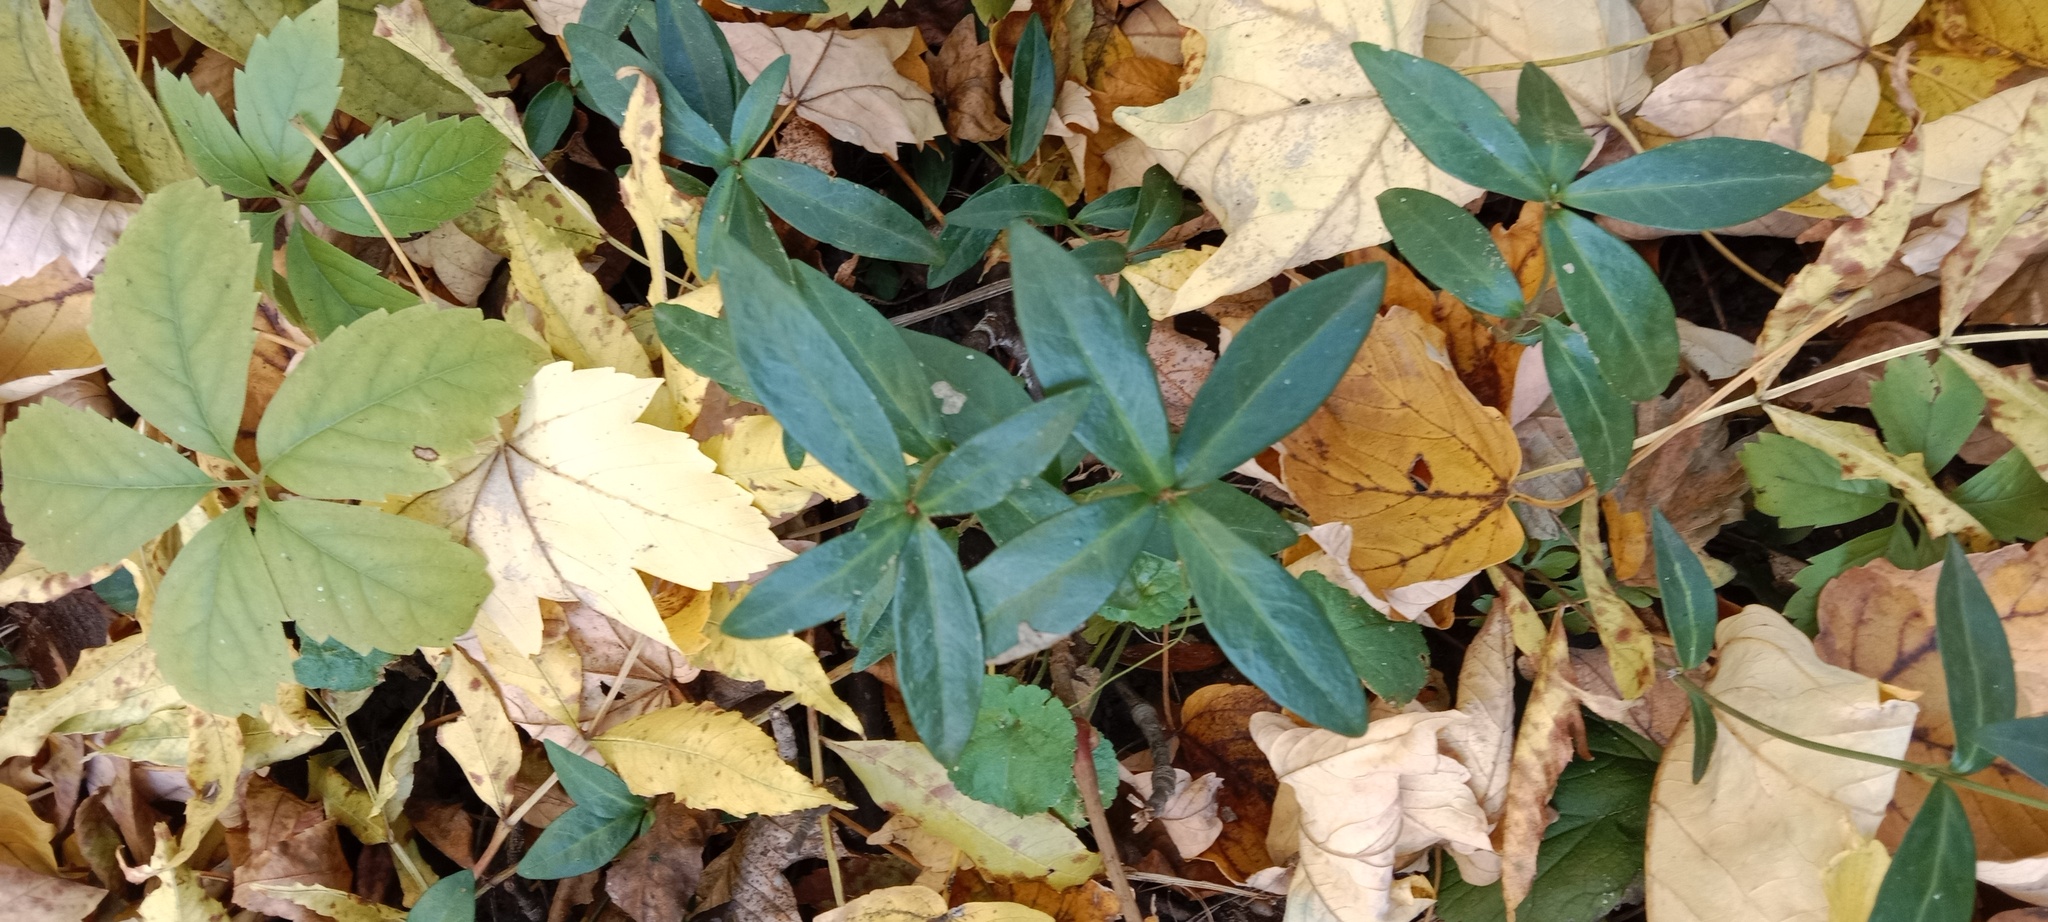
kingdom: Plantae
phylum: Tracheophyta
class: Magnoliopsida
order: Gentianales
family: Apocynaceae
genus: Vinca
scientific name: Vinca minor
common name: Lesser periwinkle
